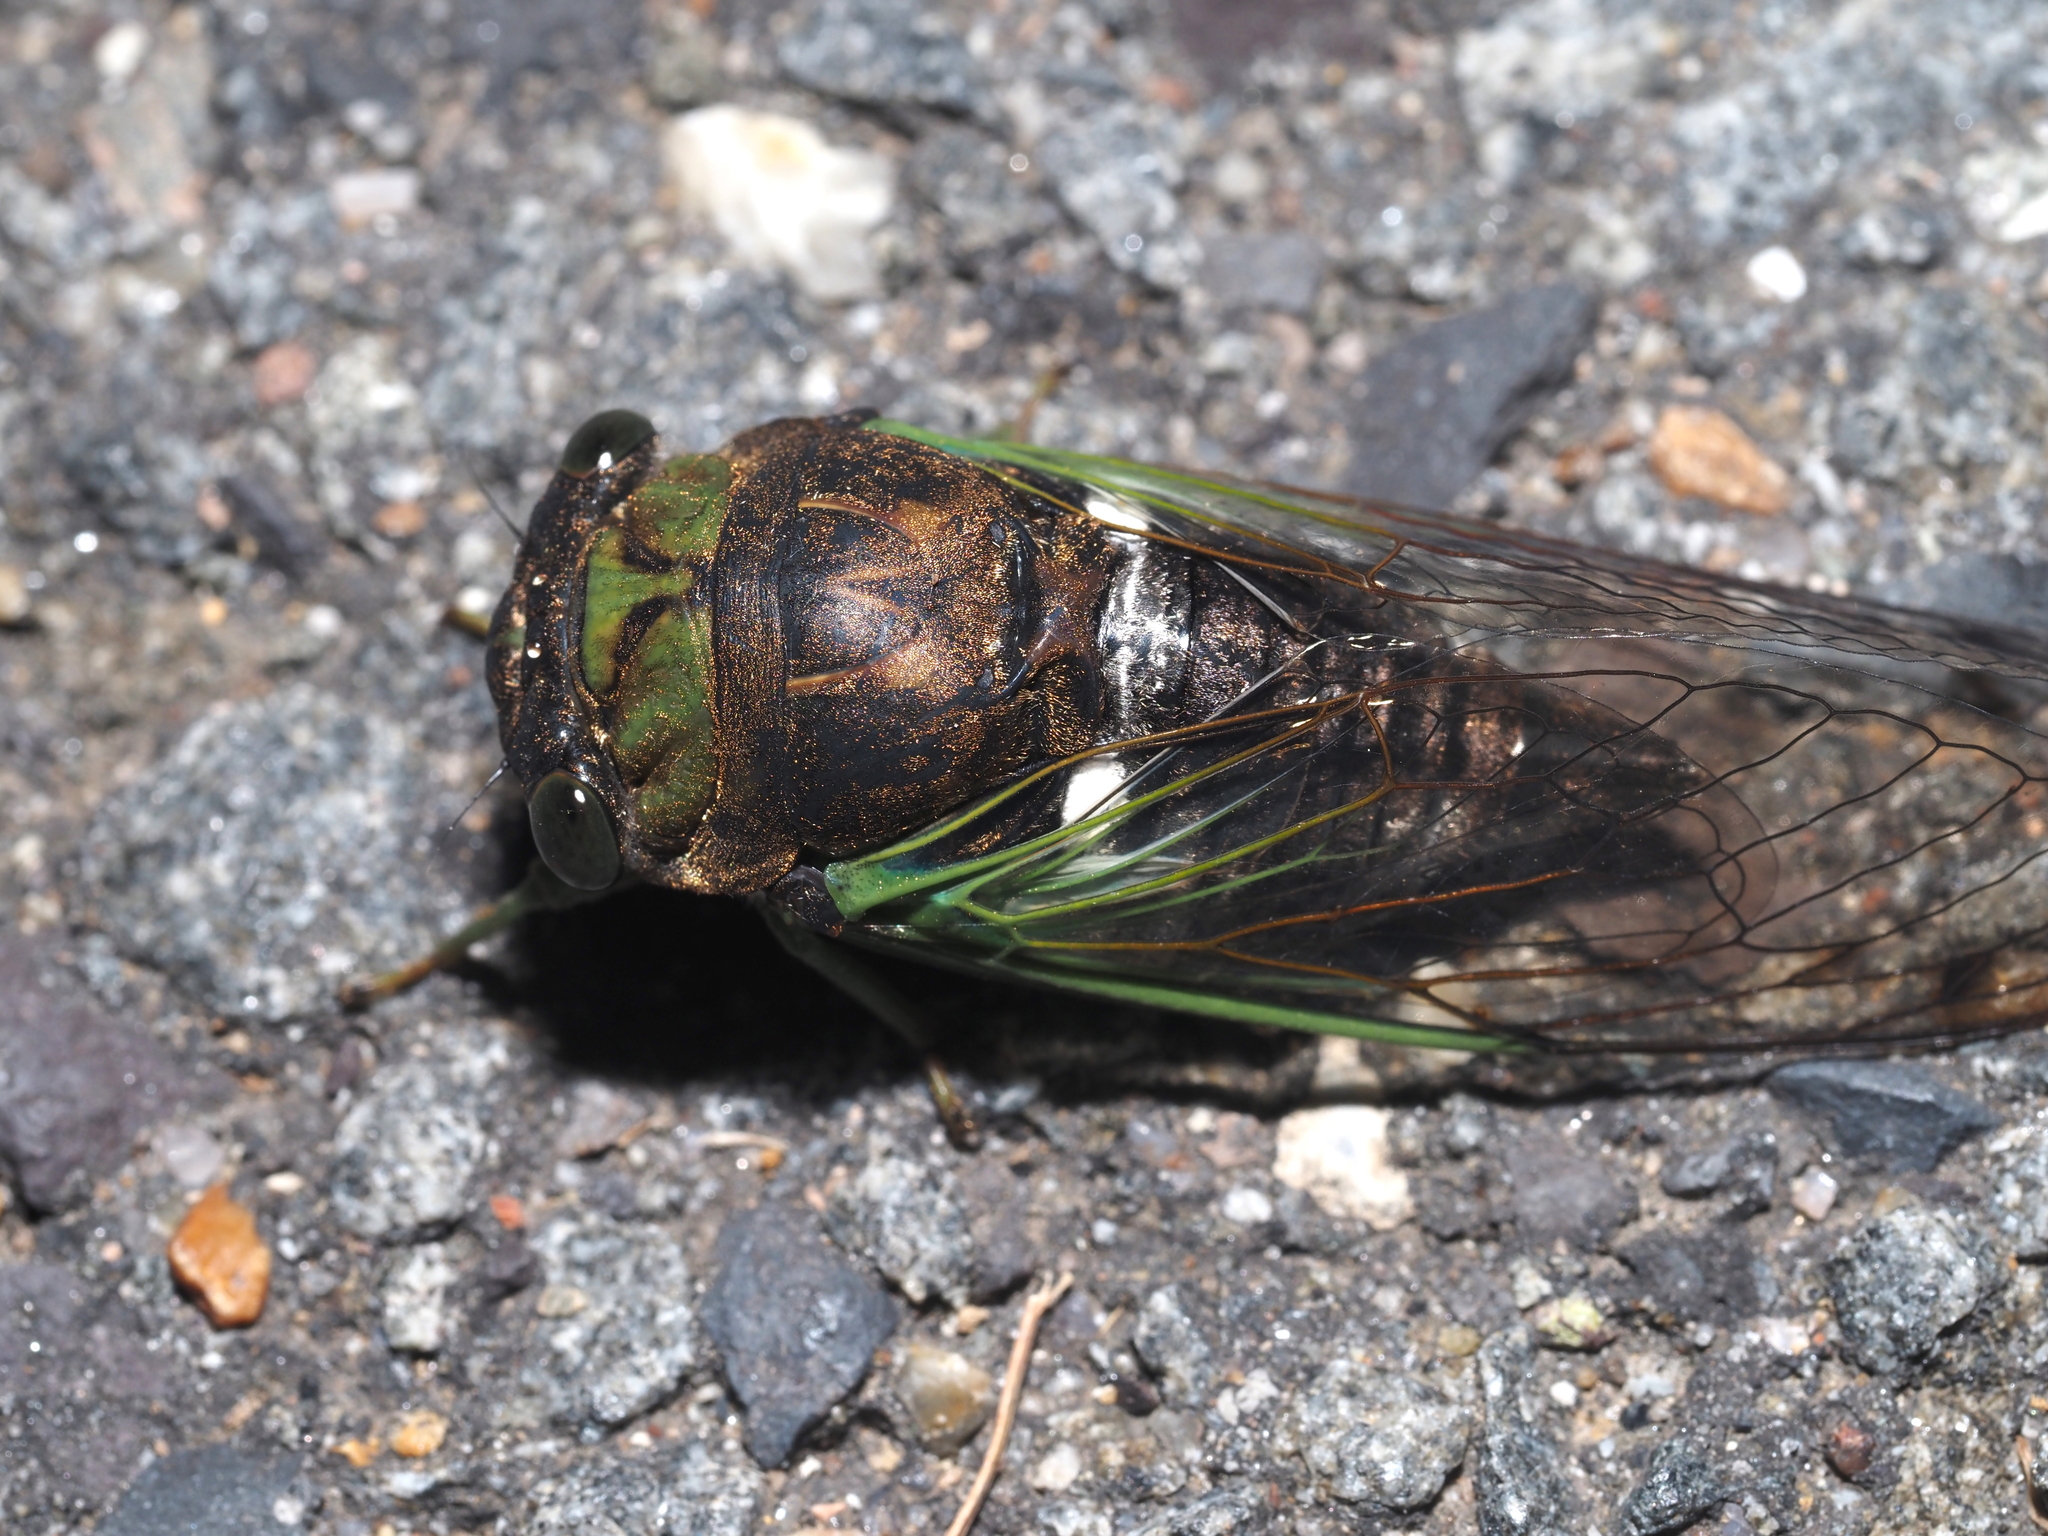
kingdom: Animalia
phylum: Arthropoda
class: Insecta
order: Hemiptera
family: Cicadidae
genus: Neotibicen
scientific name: Neotibicen tibicen
